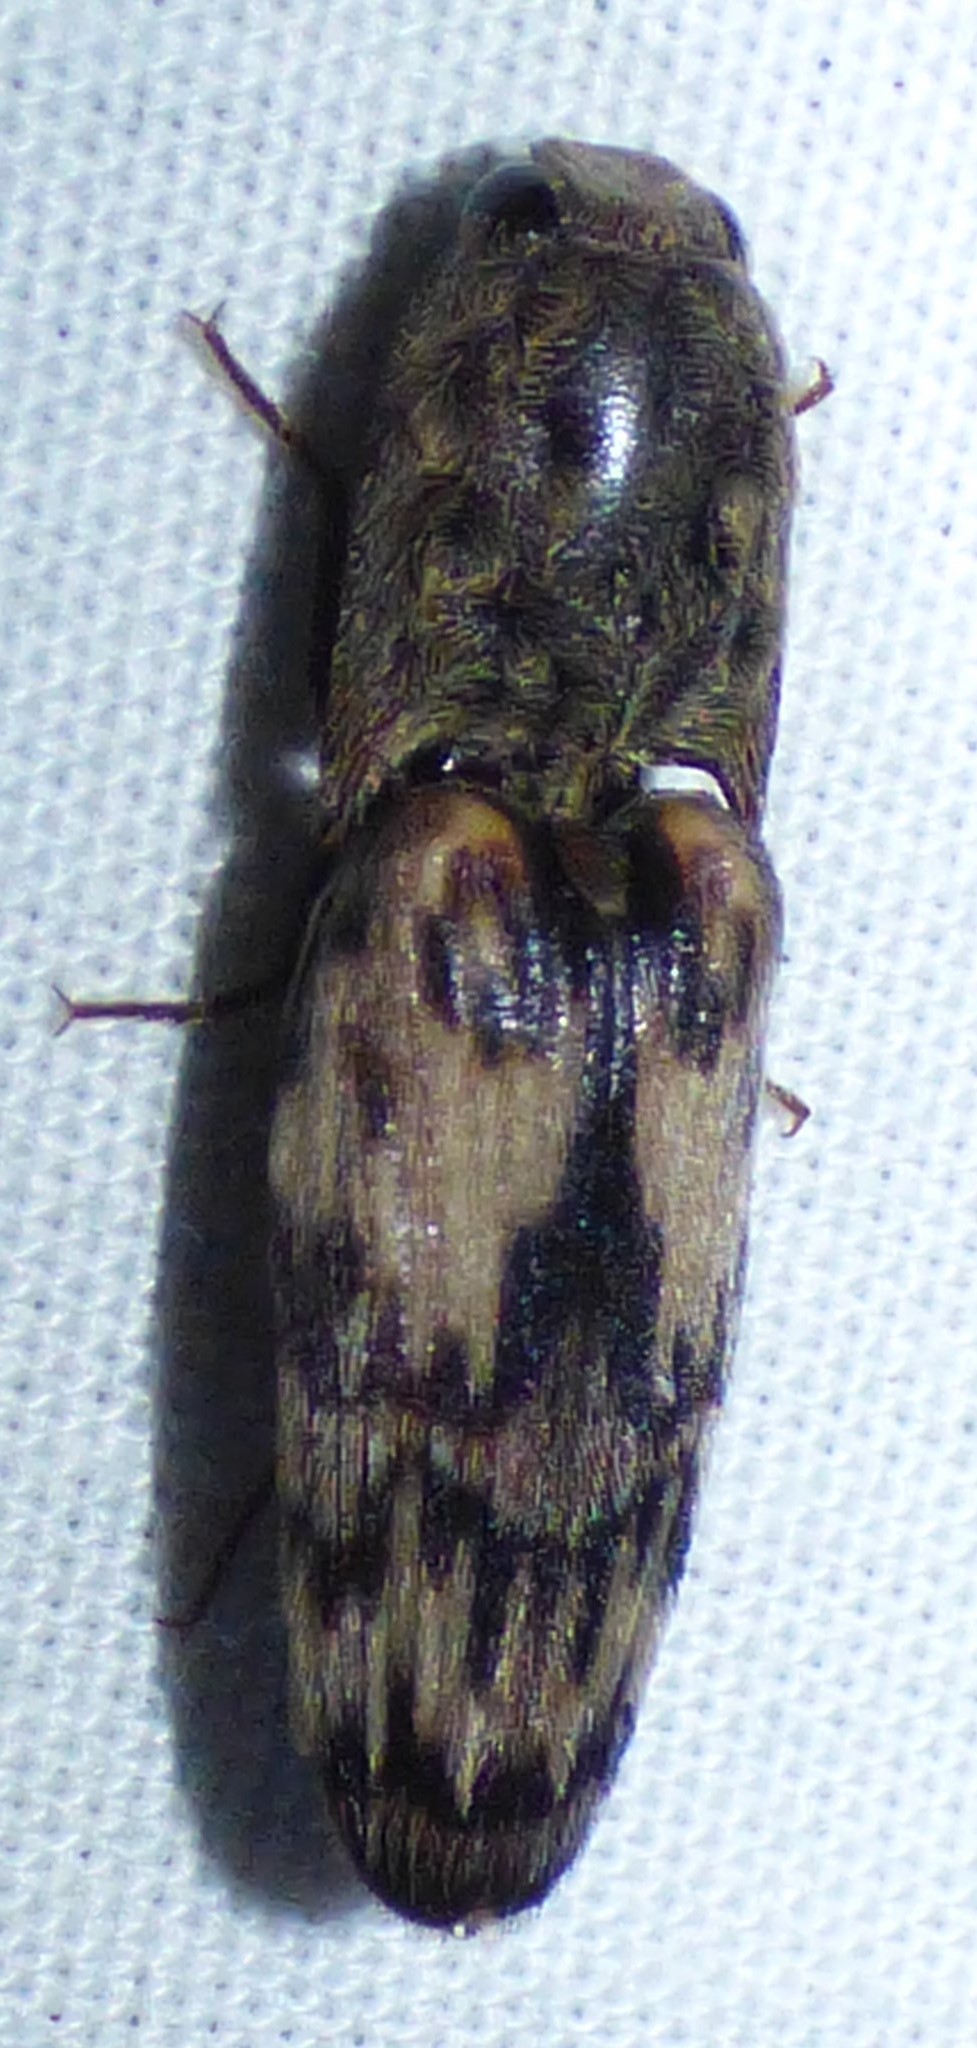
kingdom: Animalia
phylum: Arthropoda
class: Insecta
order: Coleoptera
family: Elateridae
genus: Pherhimius
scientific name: Pherhimius fascicularis
